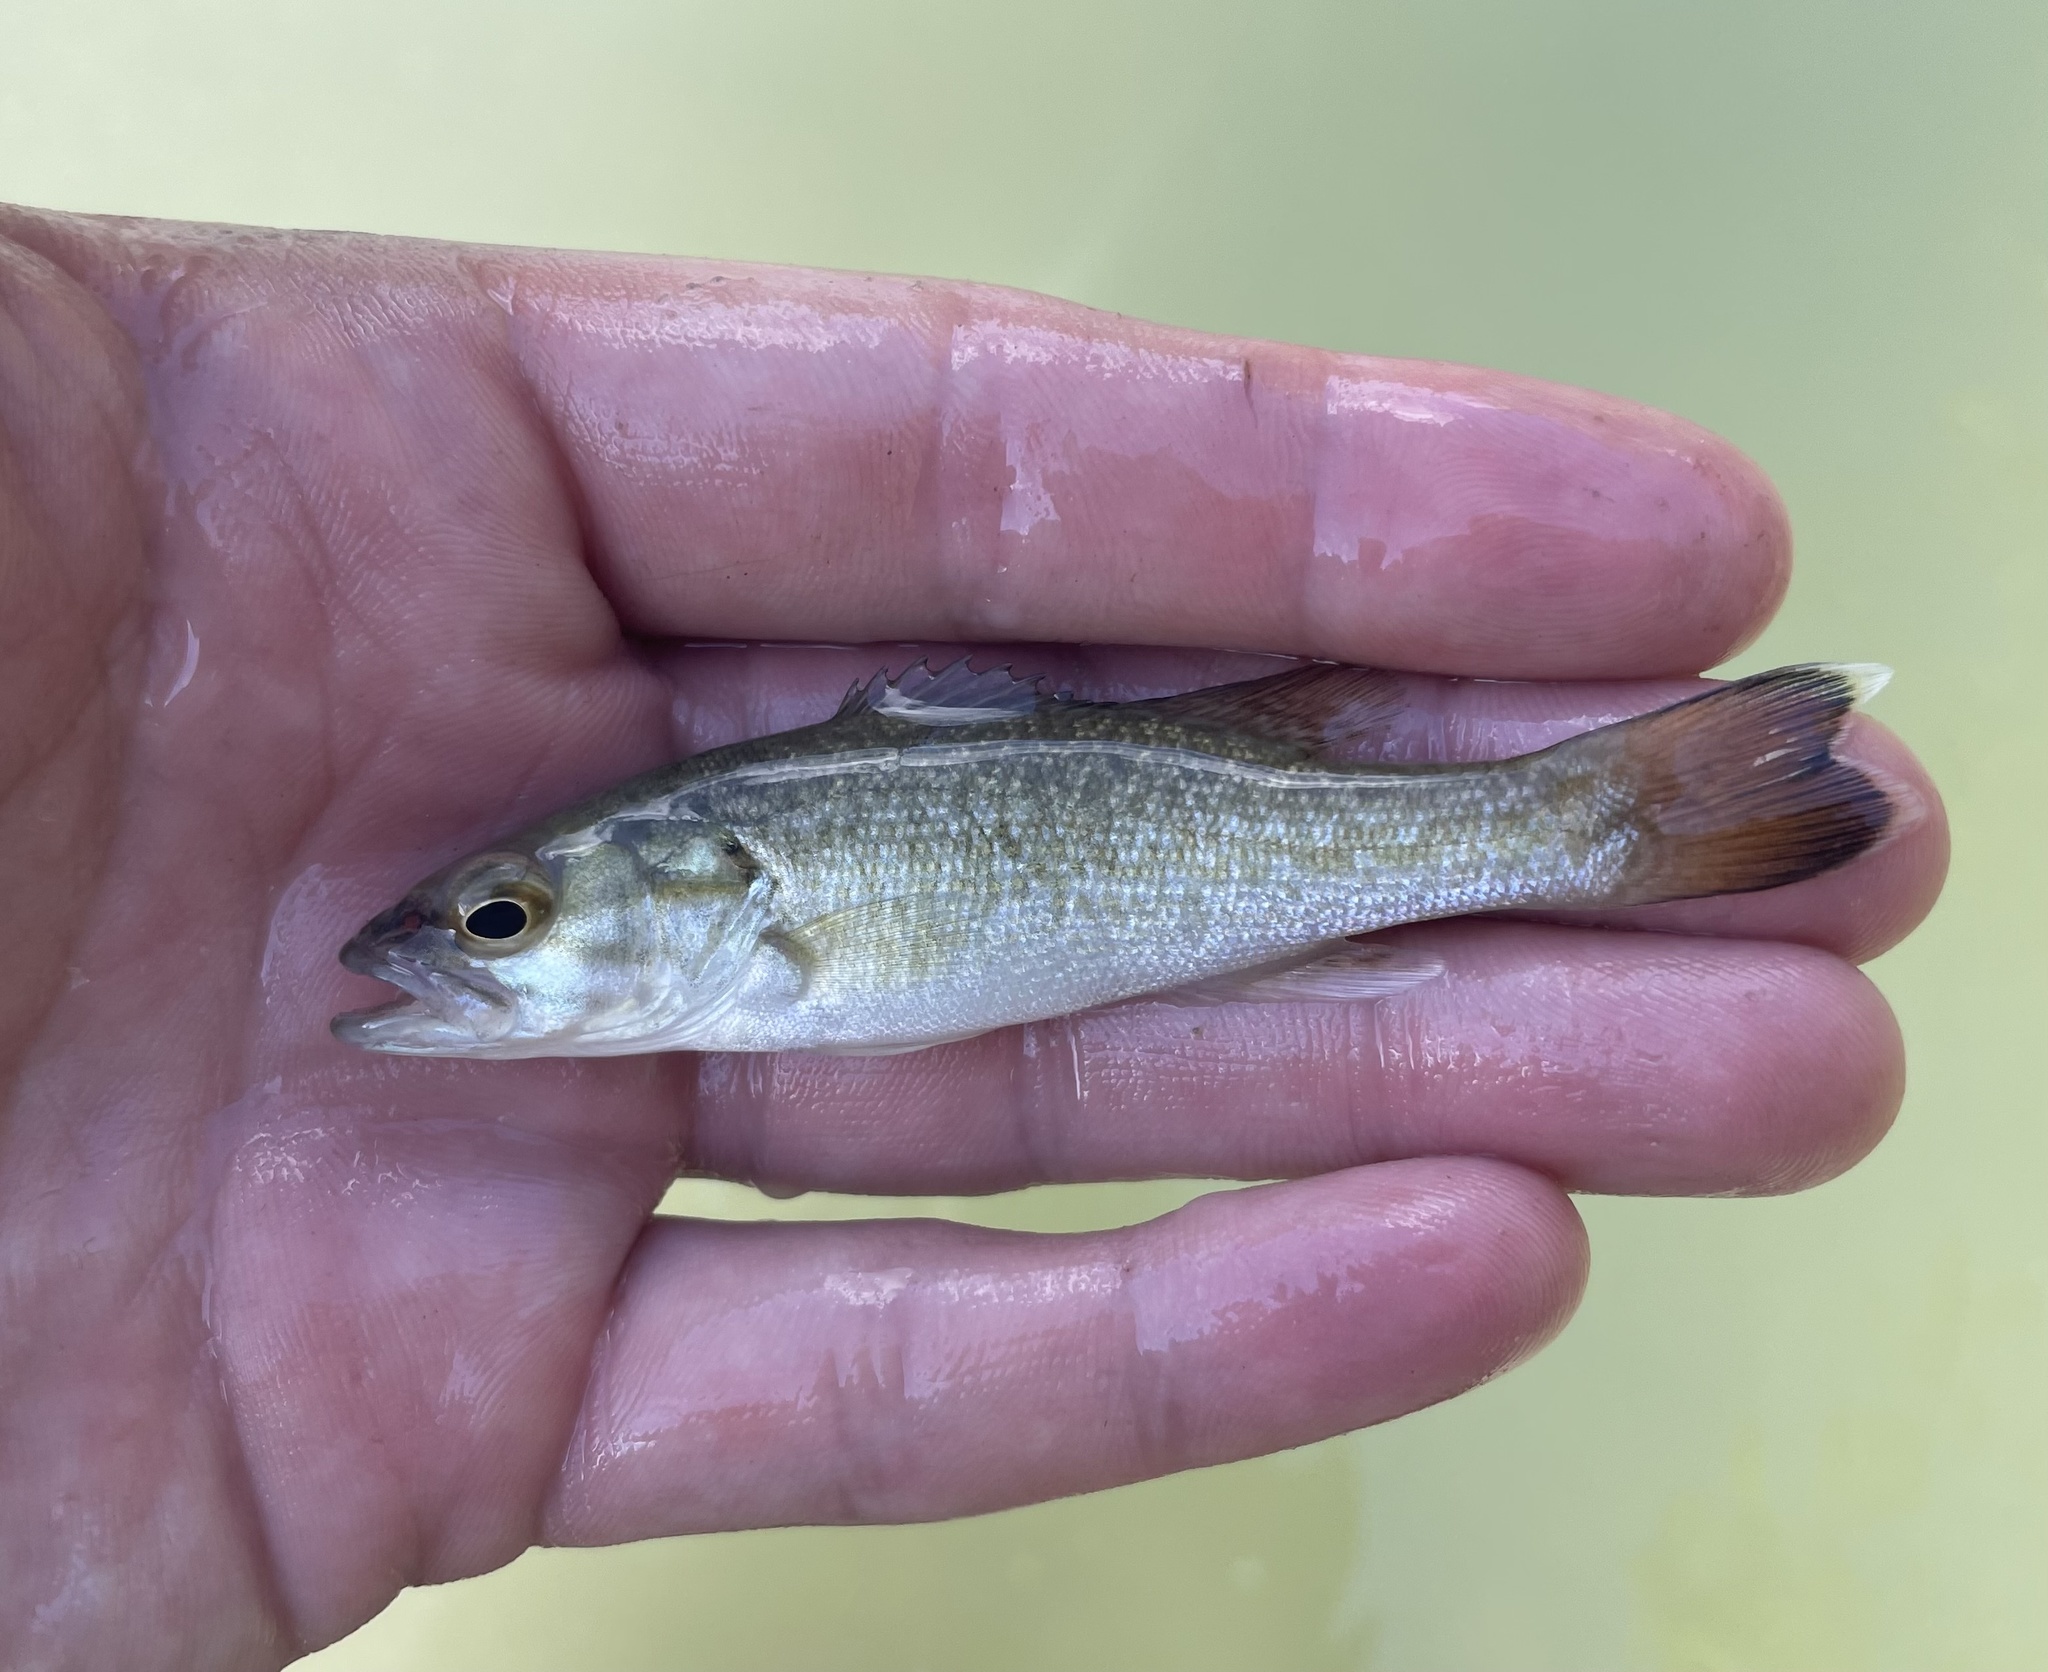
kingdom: Animalia
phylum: Chordata
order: Perciformes
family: Centrarchidae
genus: Micropterus
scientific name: Micropterus treculii
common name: Guadalupe bass
